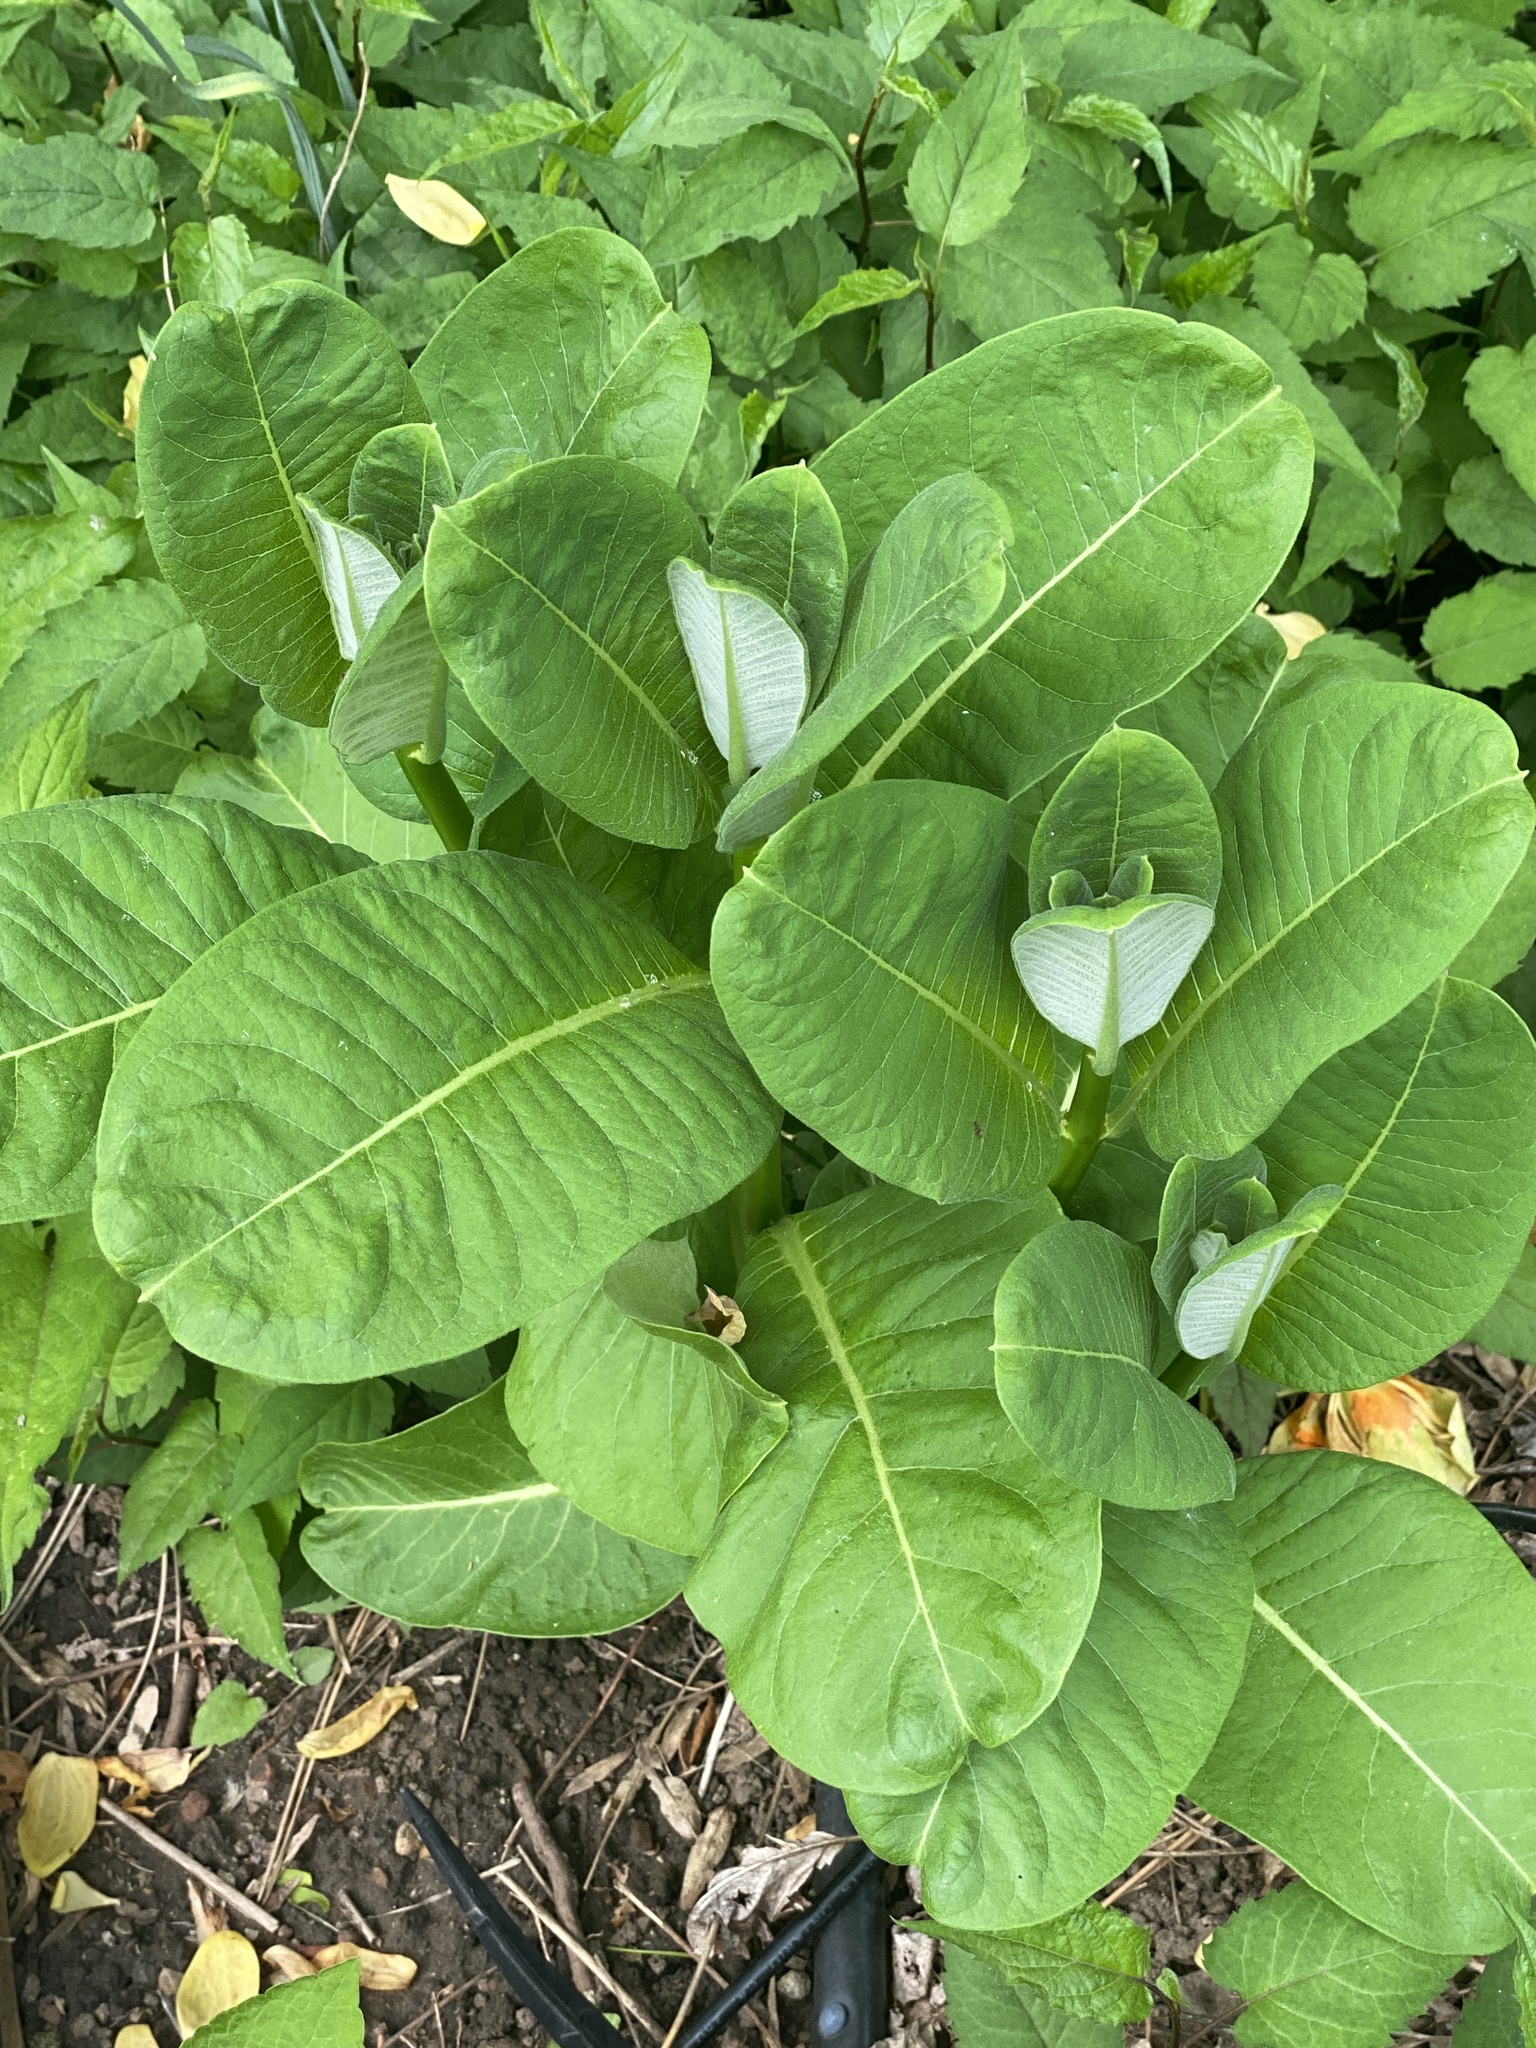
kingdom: Plantae
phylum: Tracheophyta
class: Magnoliopsida
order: Gentianales
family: Apocynaceae
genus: Asclepias
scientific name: Asclepias syriaca
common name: Common milkweed
